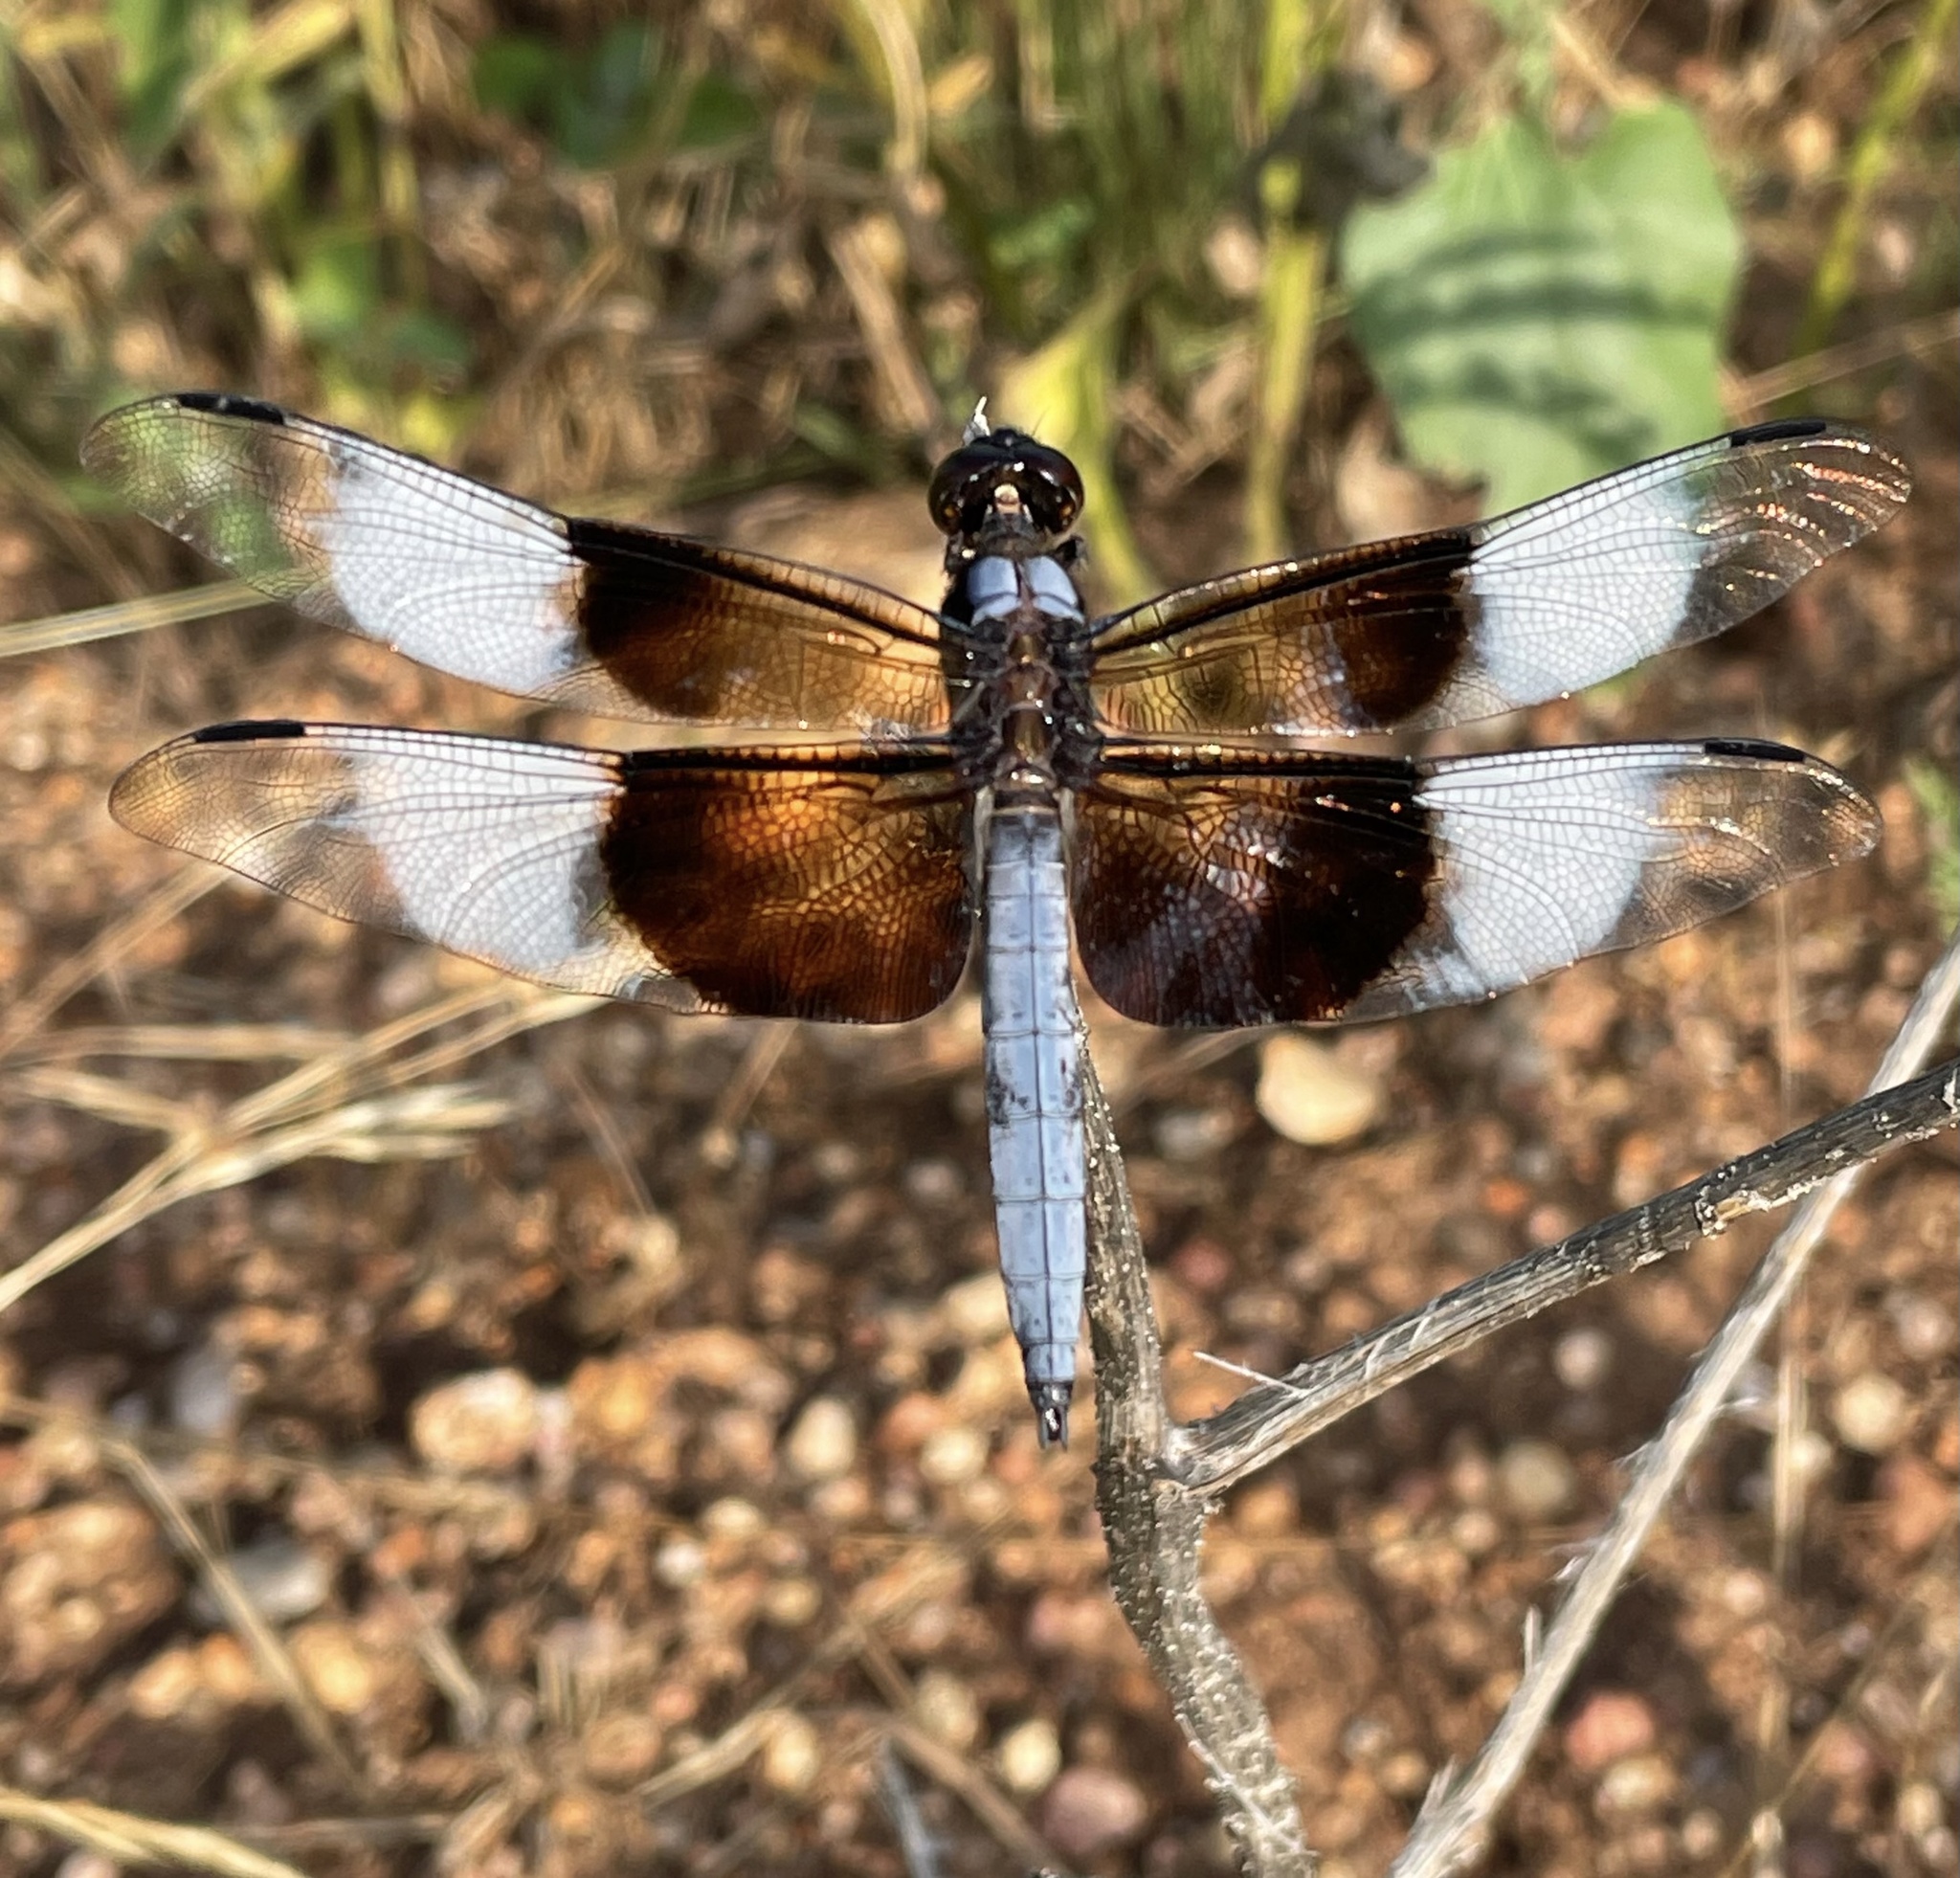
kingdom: Animalia
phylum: Arthropoda
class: Insecta
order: Odonata
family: Libellulidae
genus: Libellula
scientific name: Libellula luctuosa
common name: Widow skimmer
